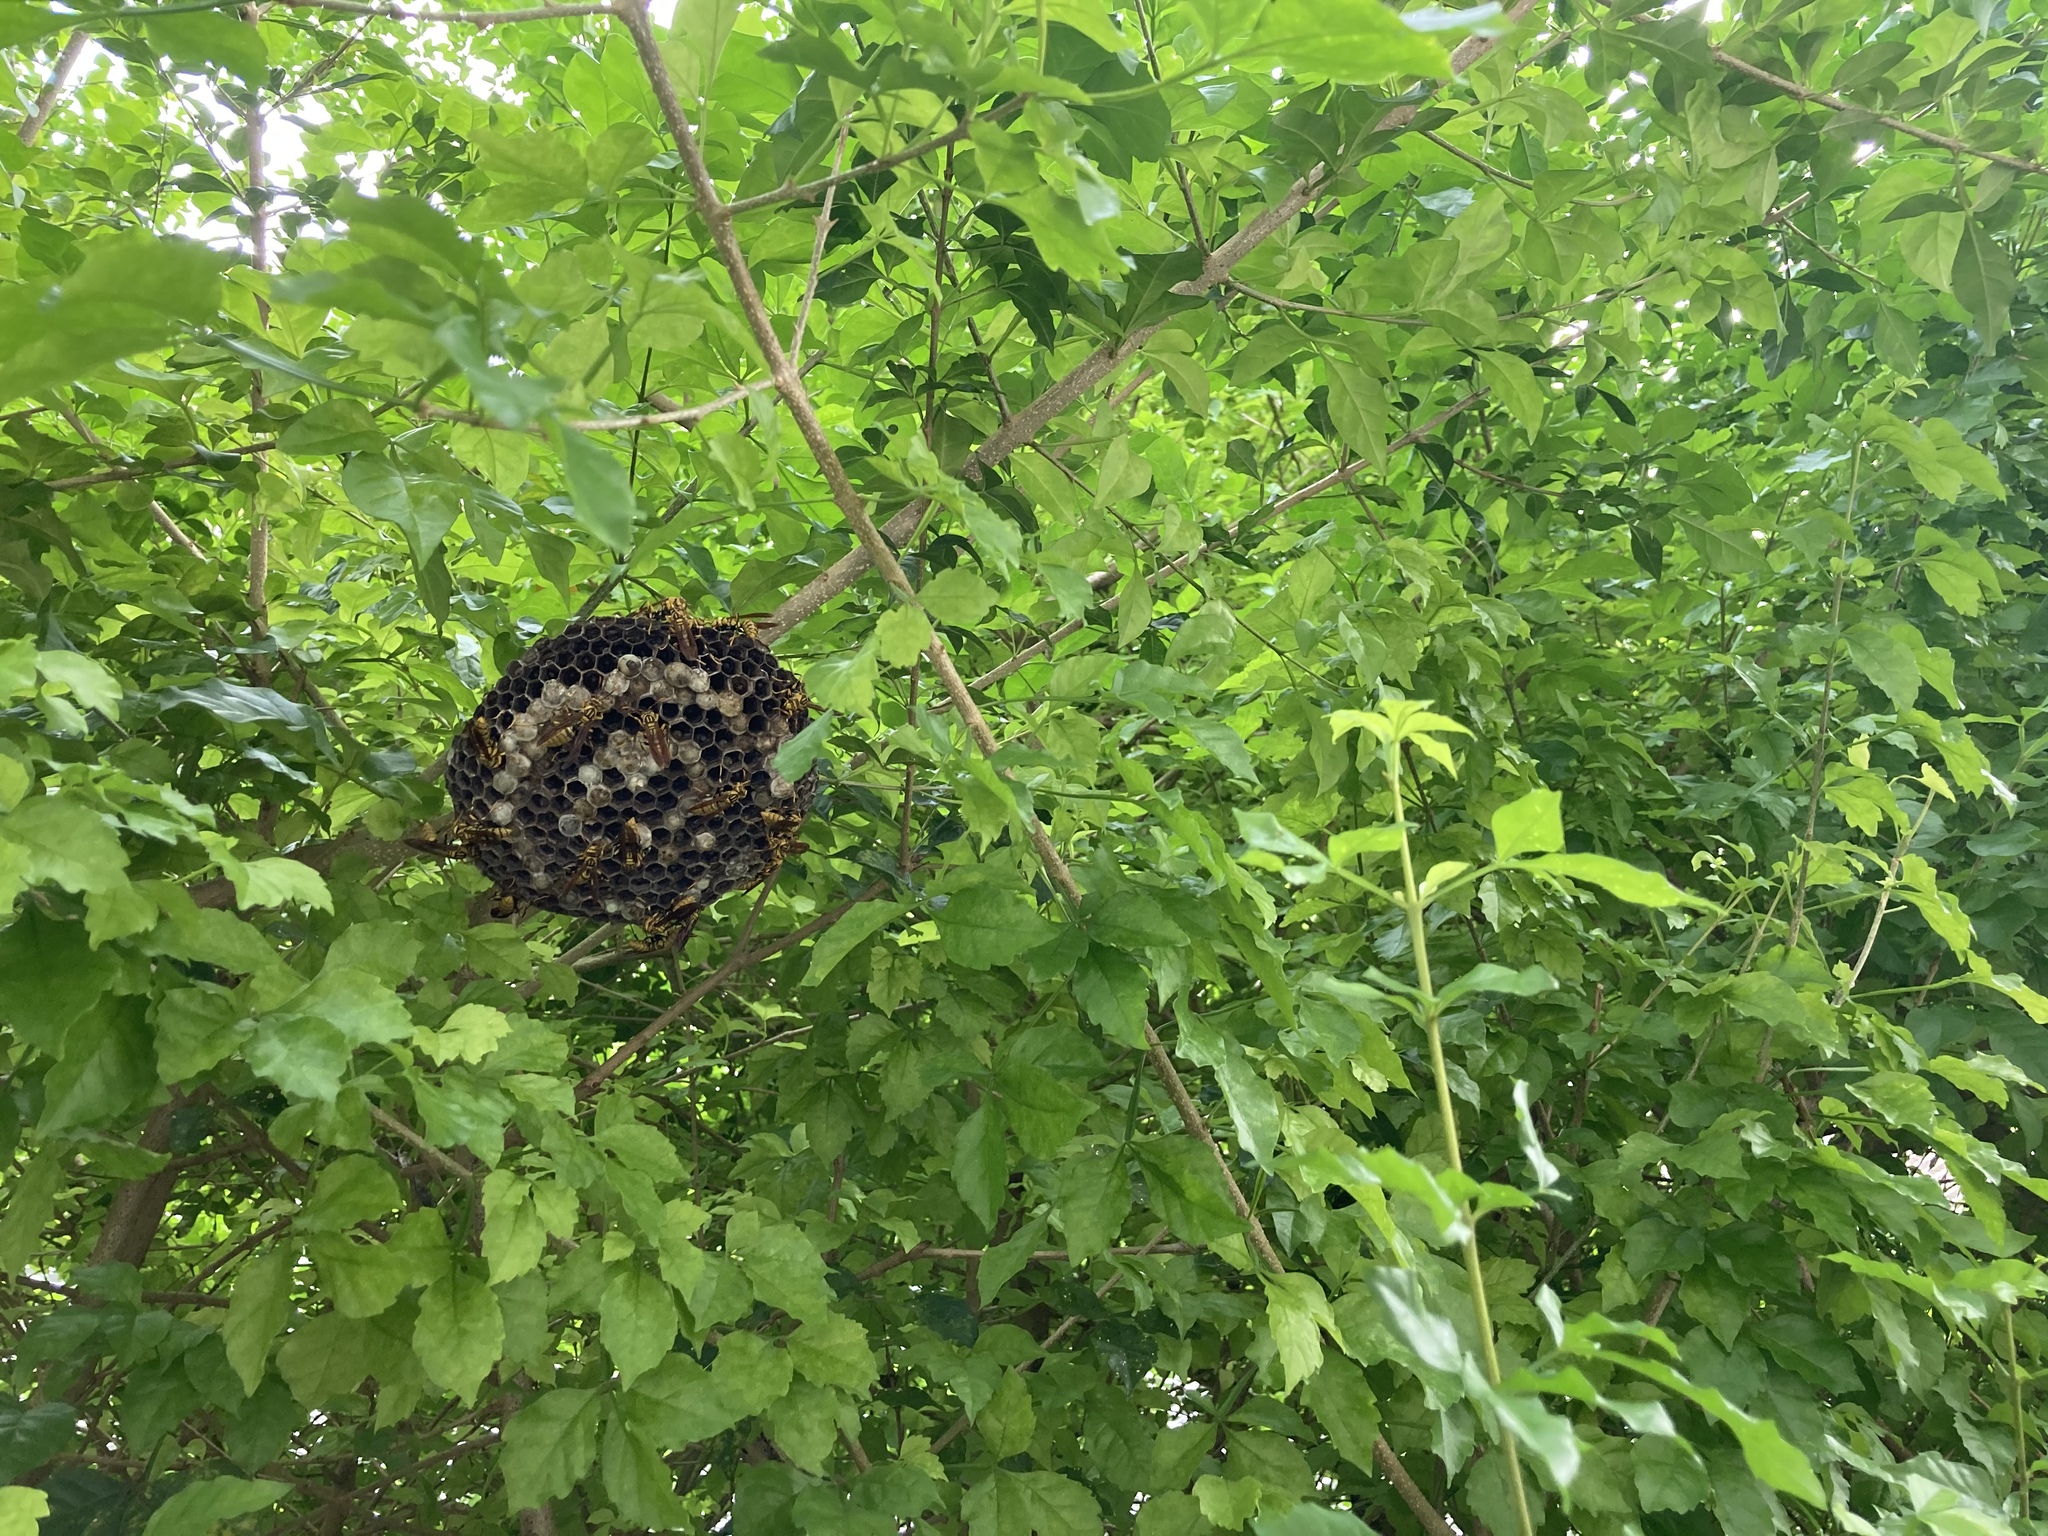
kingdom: Animalia
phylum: Arthropoda
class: Insecta
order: Hymenoptera
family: Eumenidae
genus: Polistes
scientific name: Polistes rothneyi
